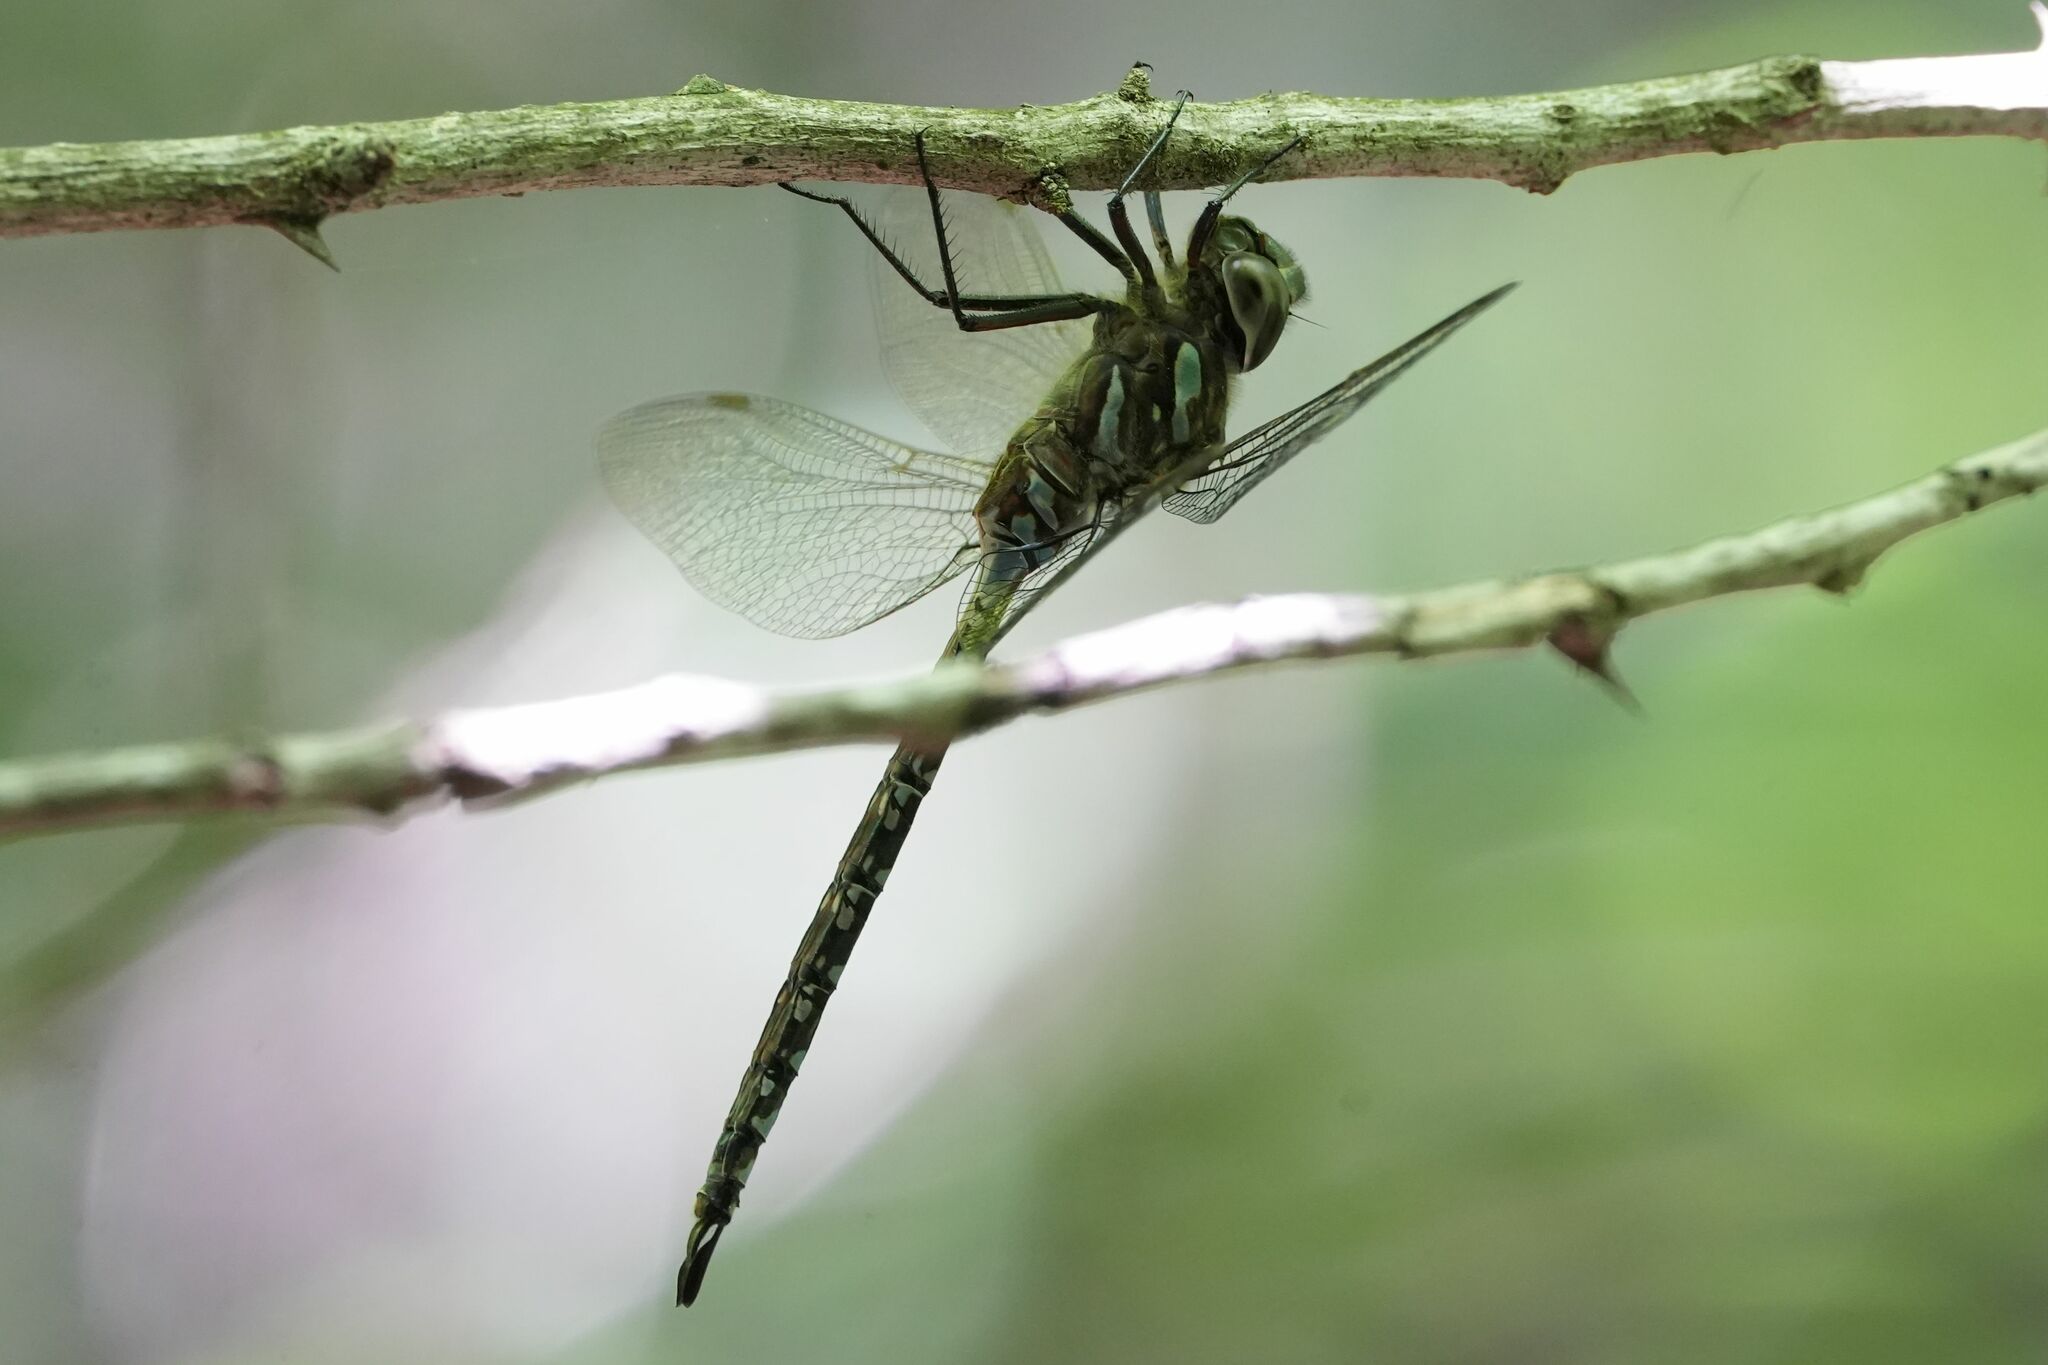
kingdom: Animalia
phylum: Arthropoda
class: Insecta
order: Odonata
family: Aeshnidae
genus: Aeshna
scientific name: Aeshna canadensis
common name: Canada darner
